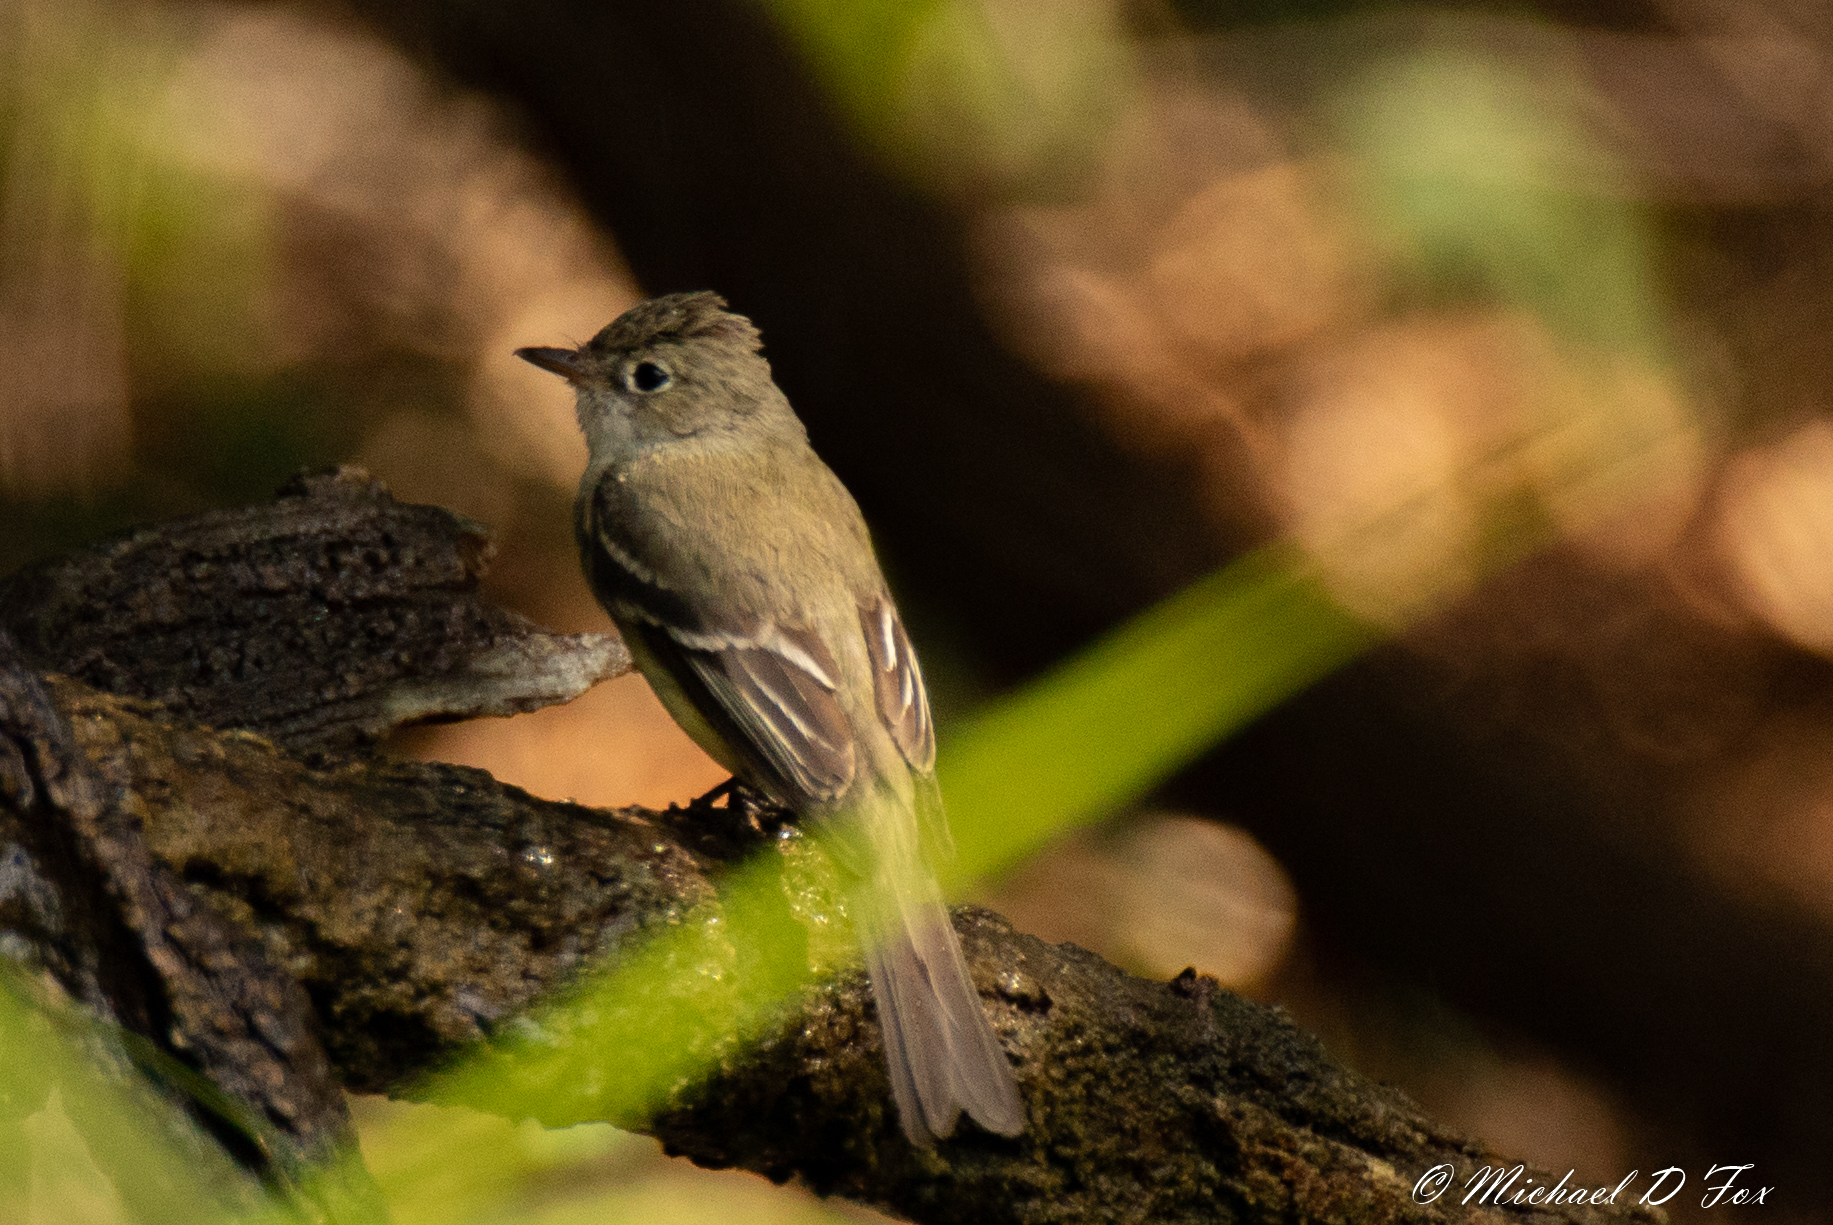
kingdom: Animalia
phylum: Chordata
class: Aves
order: Passeriformes
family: Tyrannidae
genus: Empidonax
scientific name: Empidonax minimus
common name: Least flycatcher
